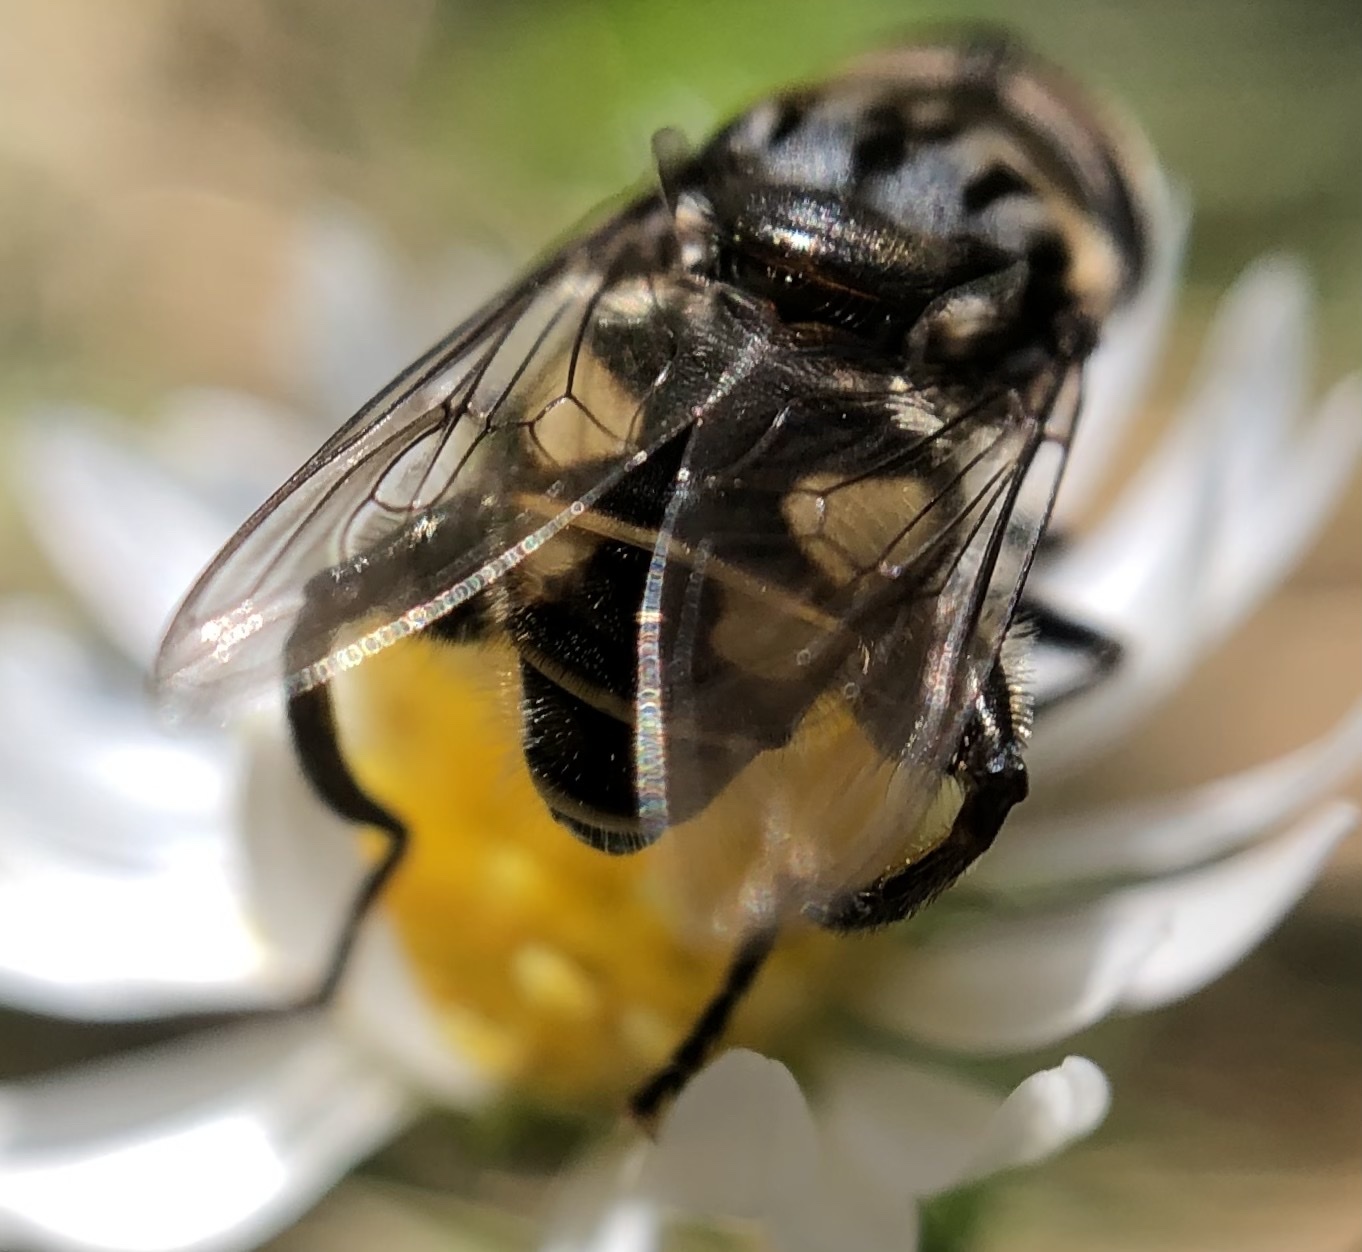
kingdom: Animalia
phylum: Arthropoda
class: Insecta
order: Diptera
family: Syrphidae
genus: Palpada
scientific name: Palpada furcata
